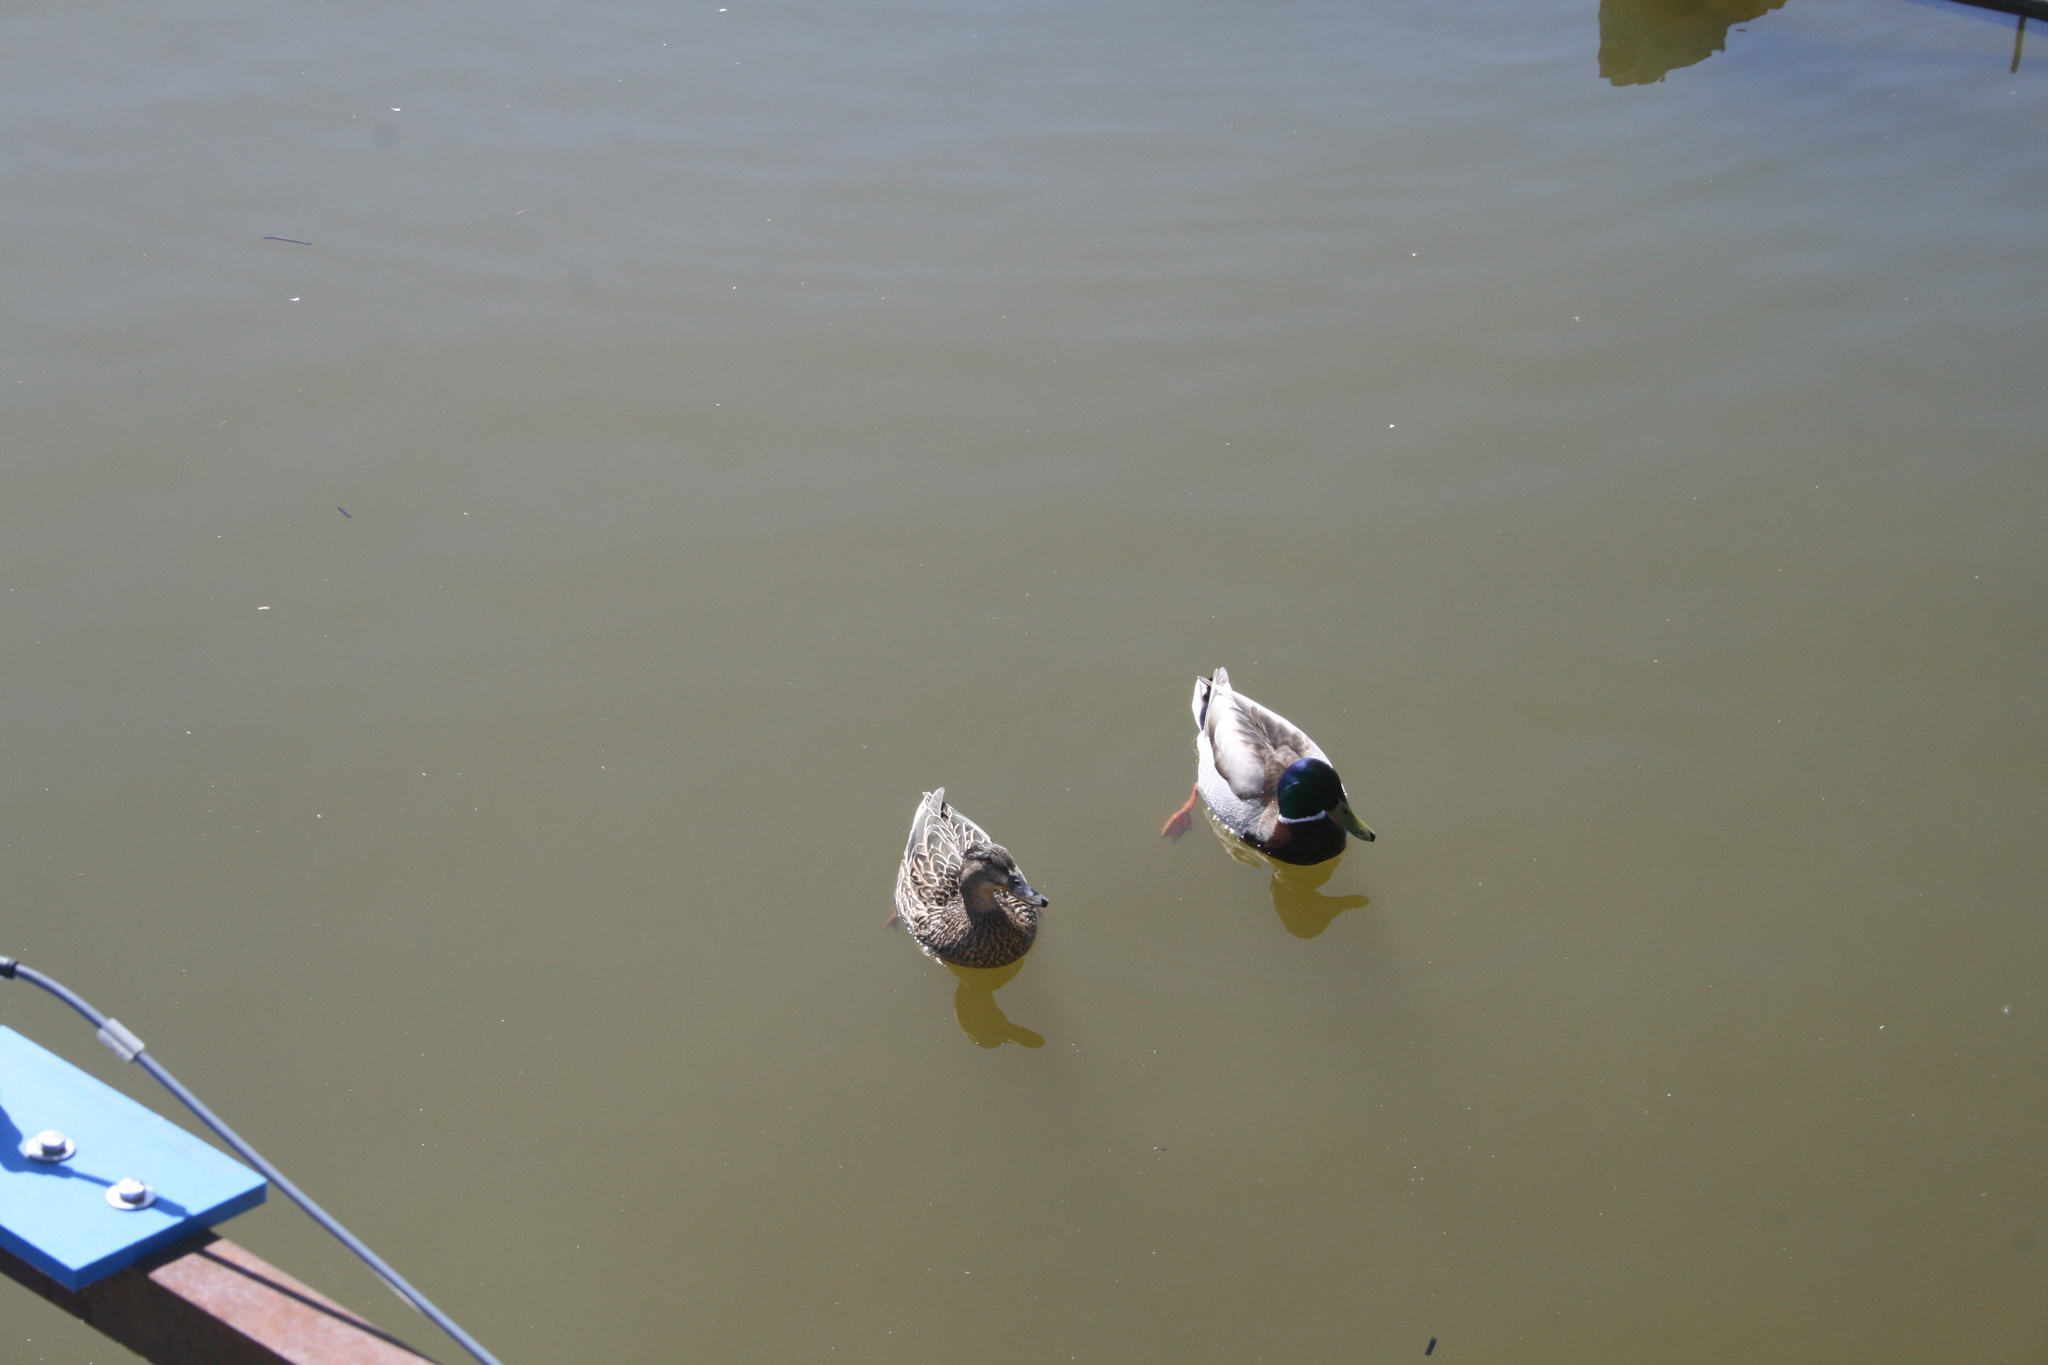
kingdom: Animalia
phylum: Chordata
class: Aves
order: Anseriformes
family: Anatidae
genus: Anas
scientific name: Anas platyrhynchos
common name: Mallard
